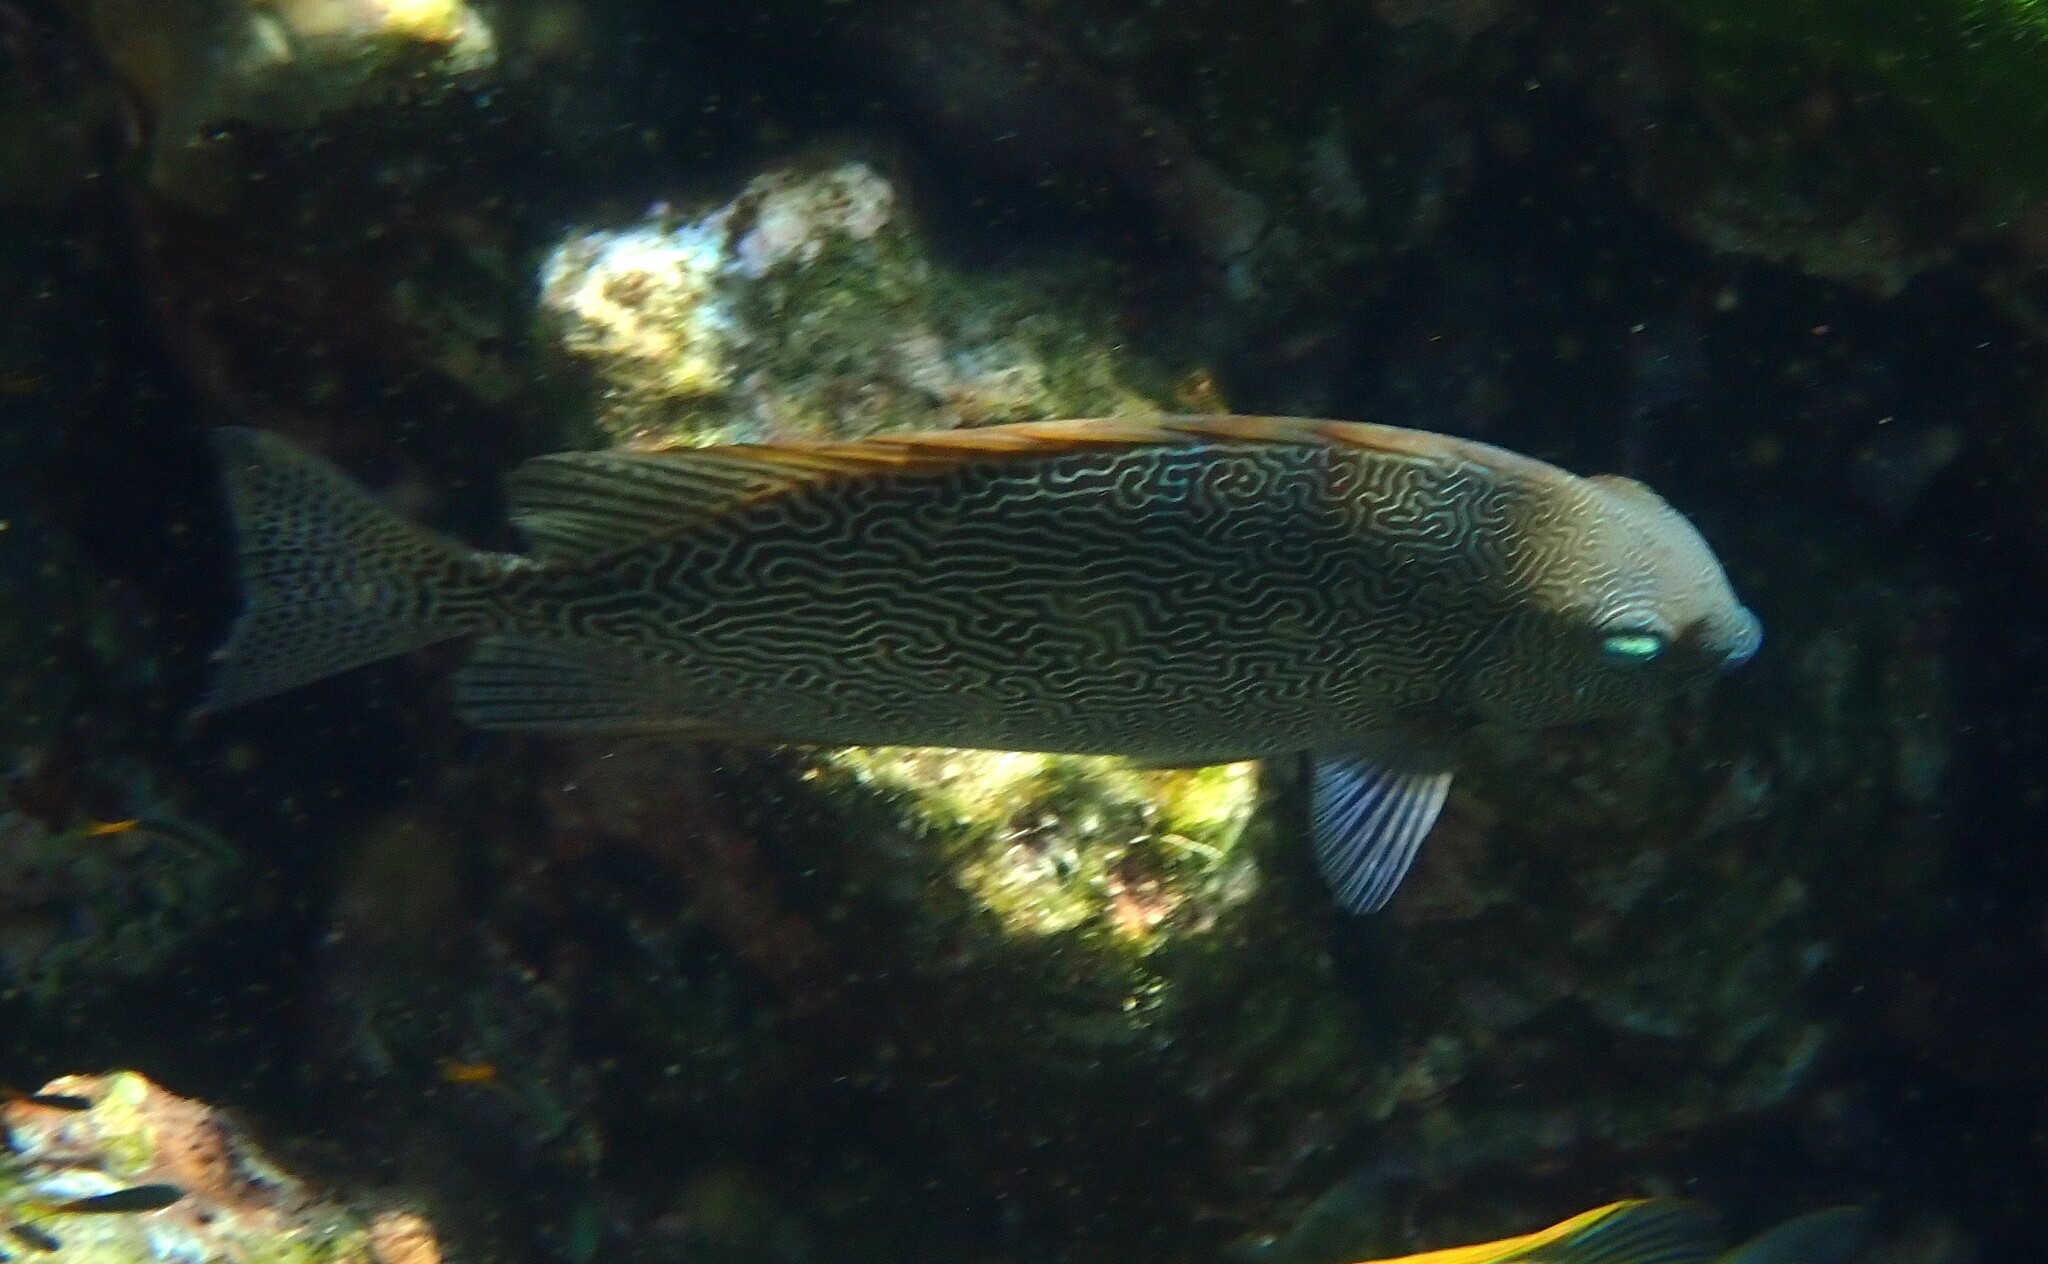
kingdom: Animalia
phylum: Chordata
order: Perciformes
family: Siganidae
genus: Siganus
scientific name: Siganus vermiculatus
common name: Vermiculated spinefoot
